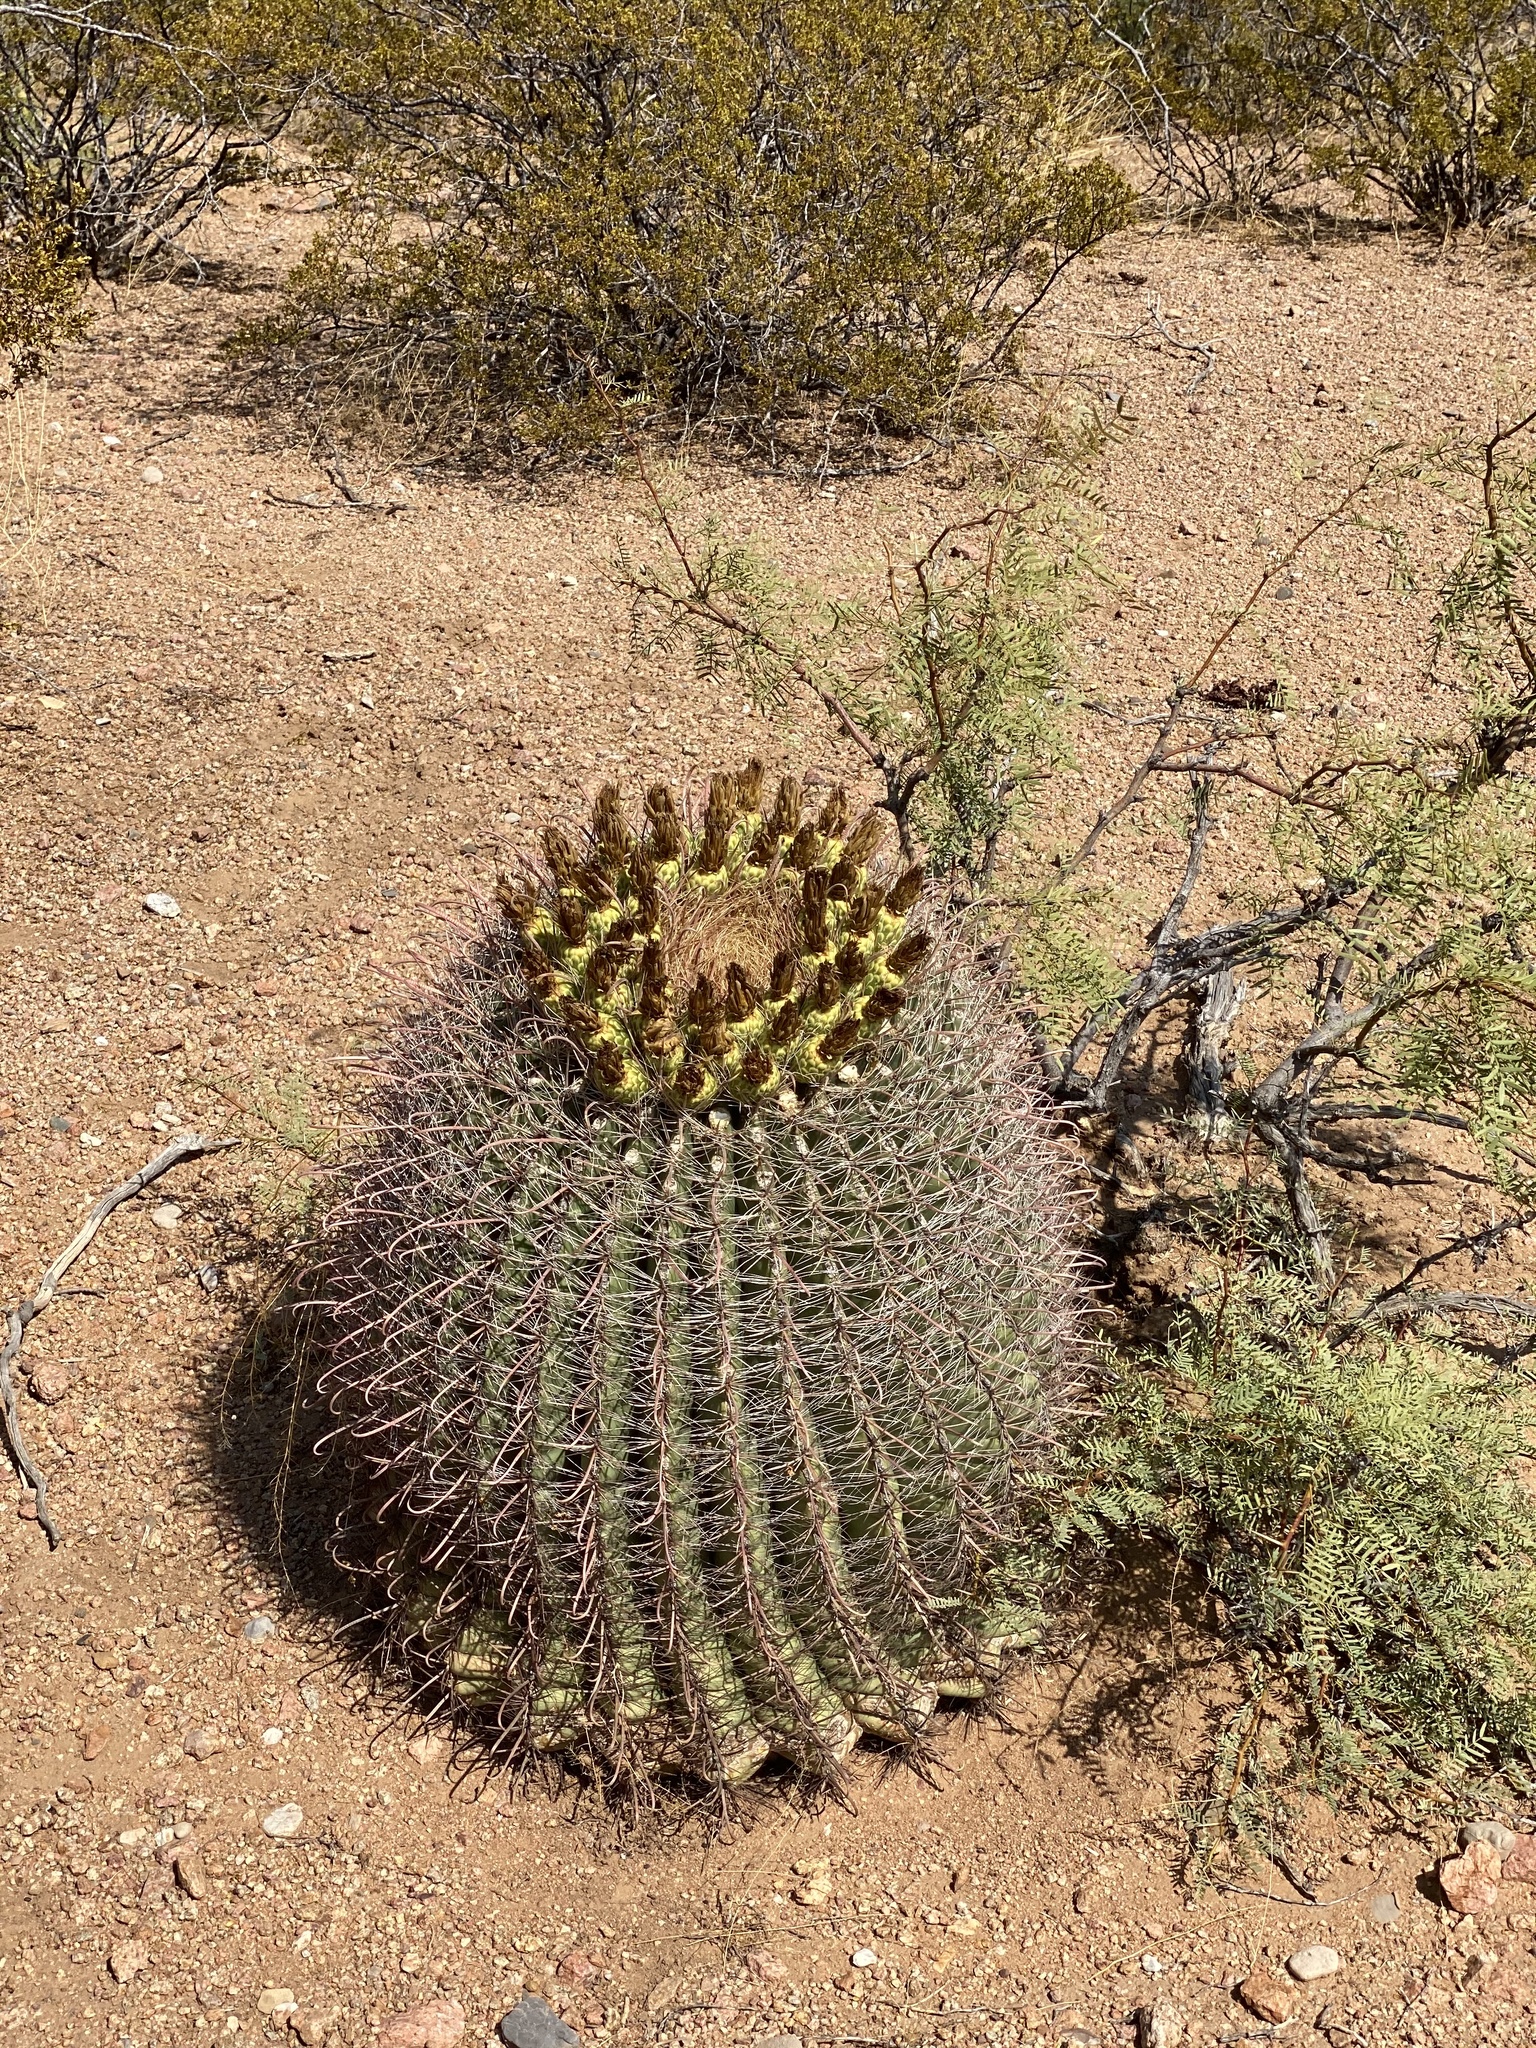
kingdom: Plantae
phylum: Tracheophyta
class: Magnoliopsida
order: Caryophyllales
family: Cactaceae
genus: Ferocactus
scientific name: Ferocactus wislizeni
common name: Candy barrel cactus
